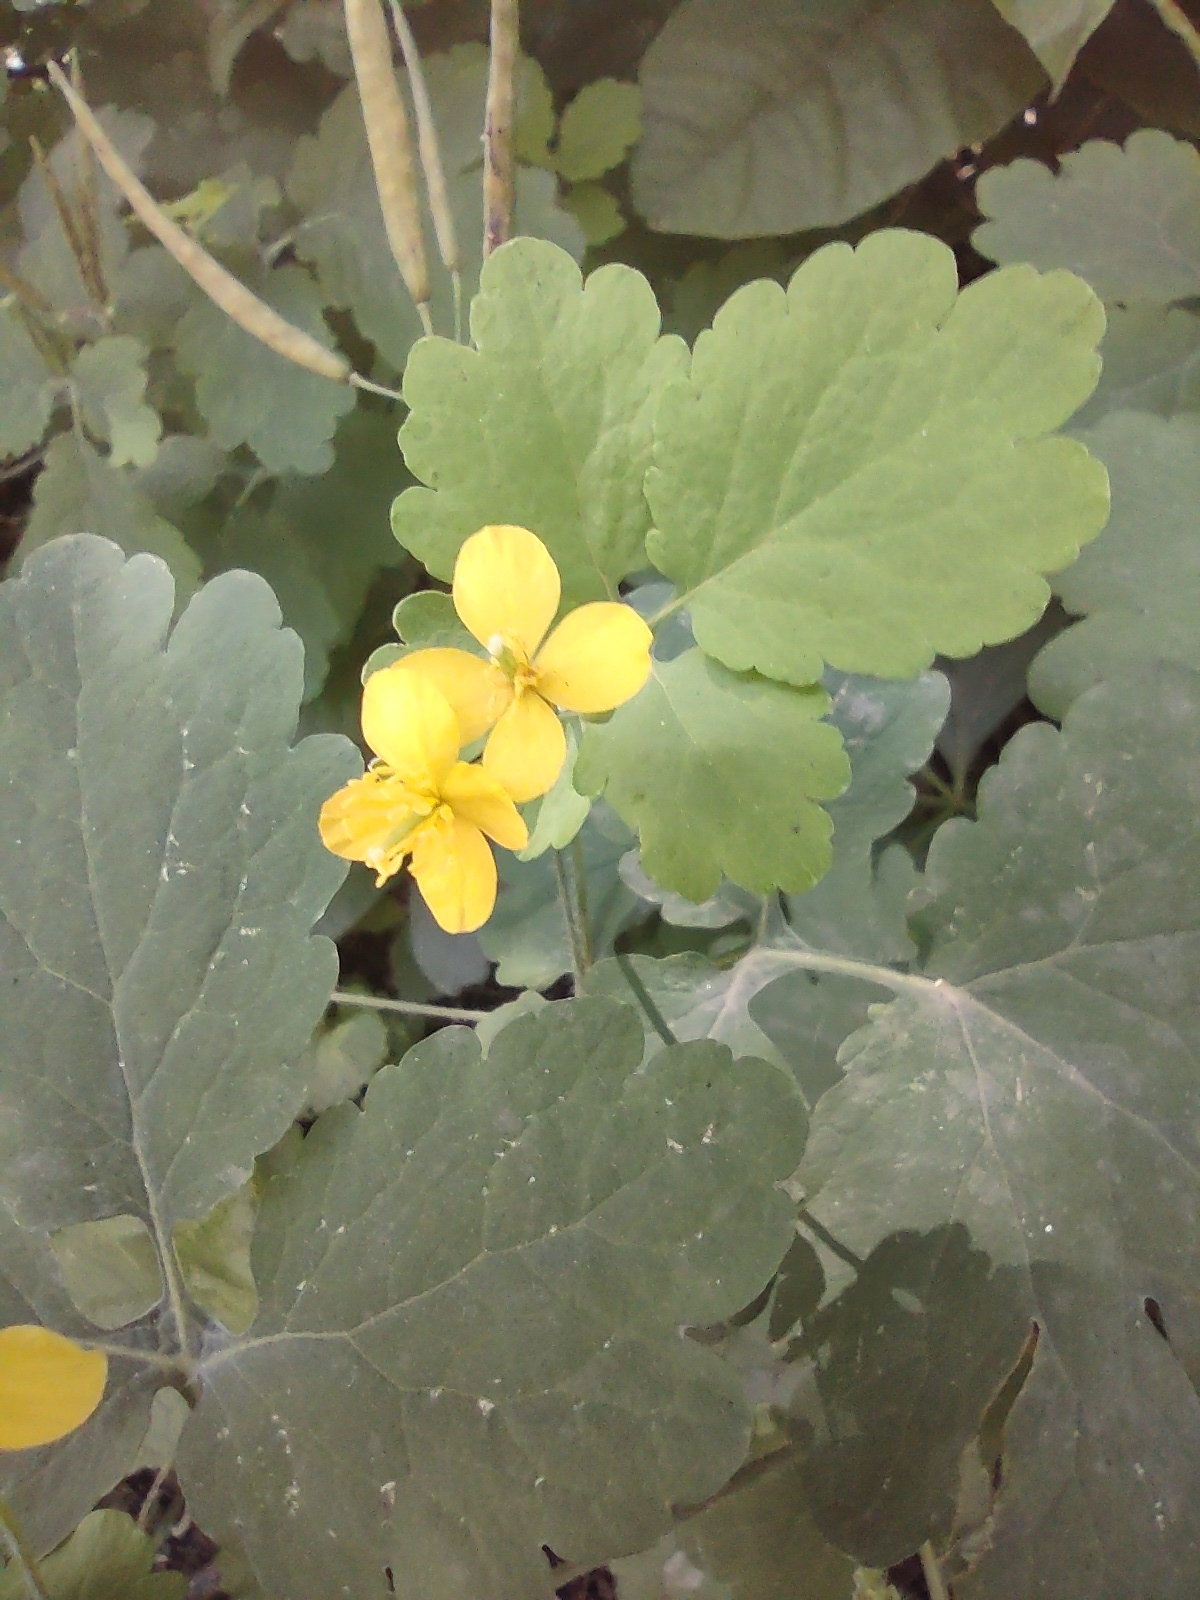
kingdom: Plantae
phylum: Tracheophyta
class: Magnoliopsida
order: Ranunculales
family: Papaveraceae
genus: Chelidonium
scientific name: Chelidonium majus
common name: Greater celandine
